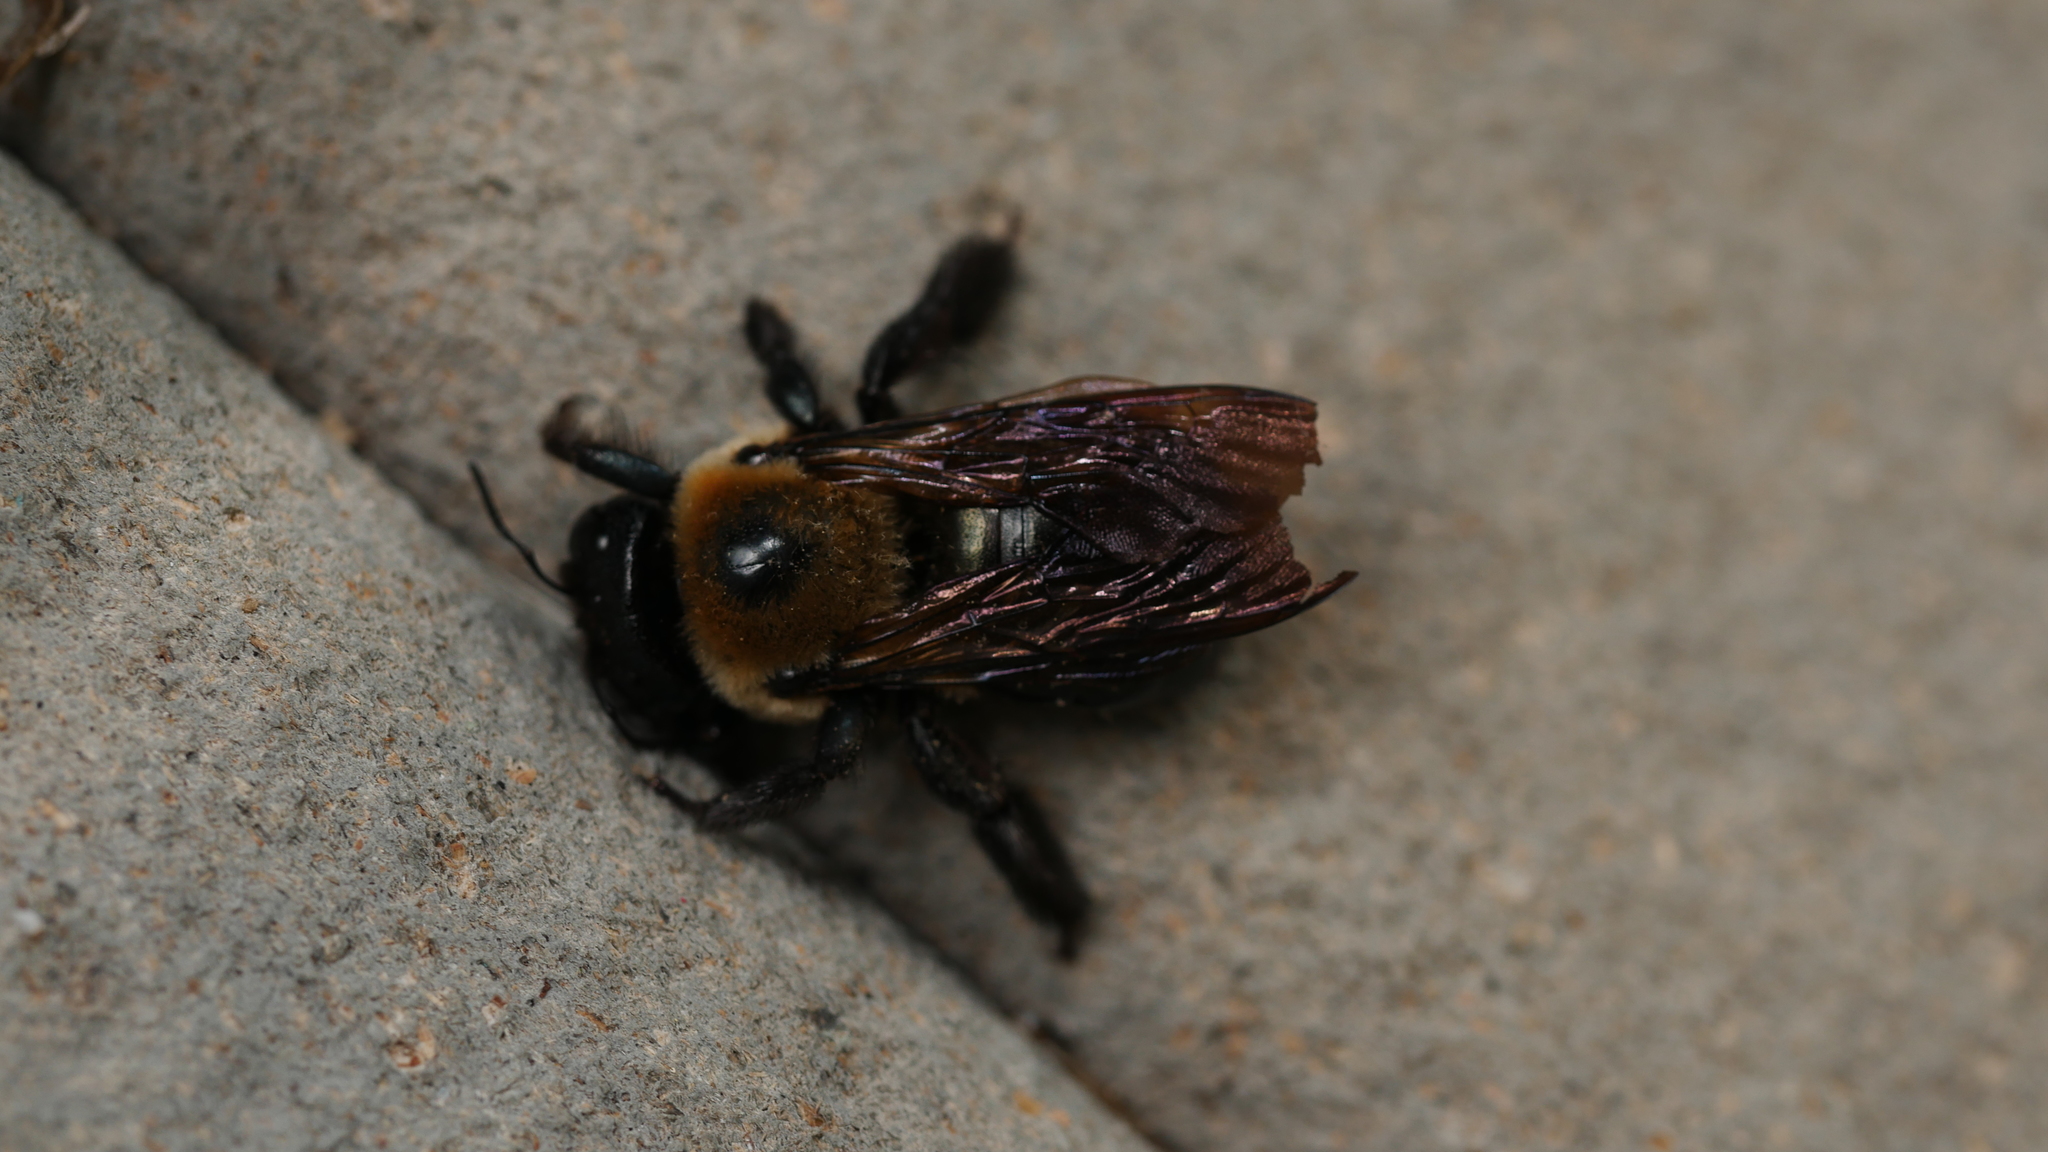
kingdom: Animalia
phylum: Arthropoda
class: Insecta
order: Hymenoptera
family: Apidae
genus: Xylocopa
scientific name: Xylocopa virginica
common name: Carpenter bee
